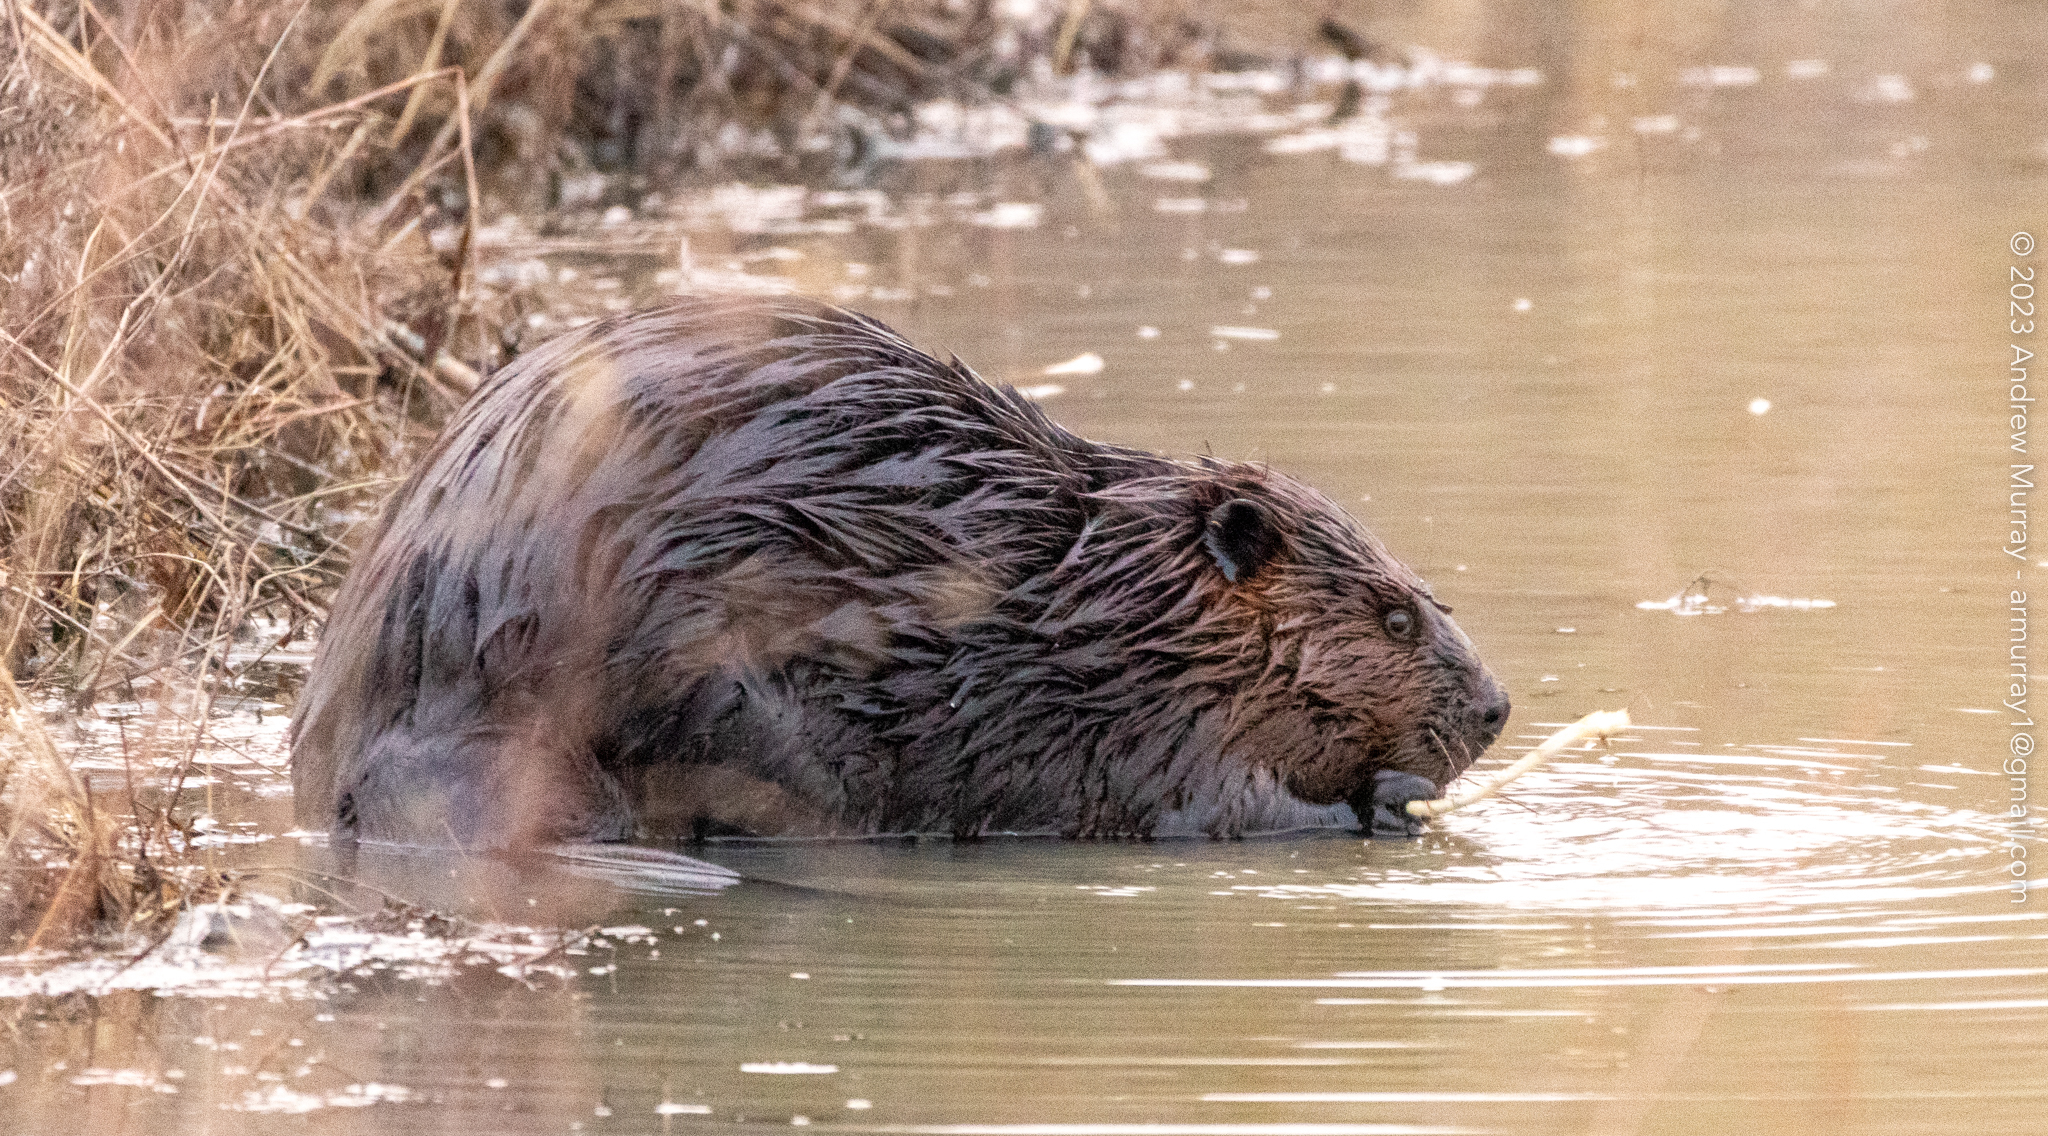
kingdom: Animalia
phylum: Chordata
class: Mammalia
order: Rodentia
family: Castoridae
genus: Castor
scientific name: Castor canadensis
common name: American beaver
